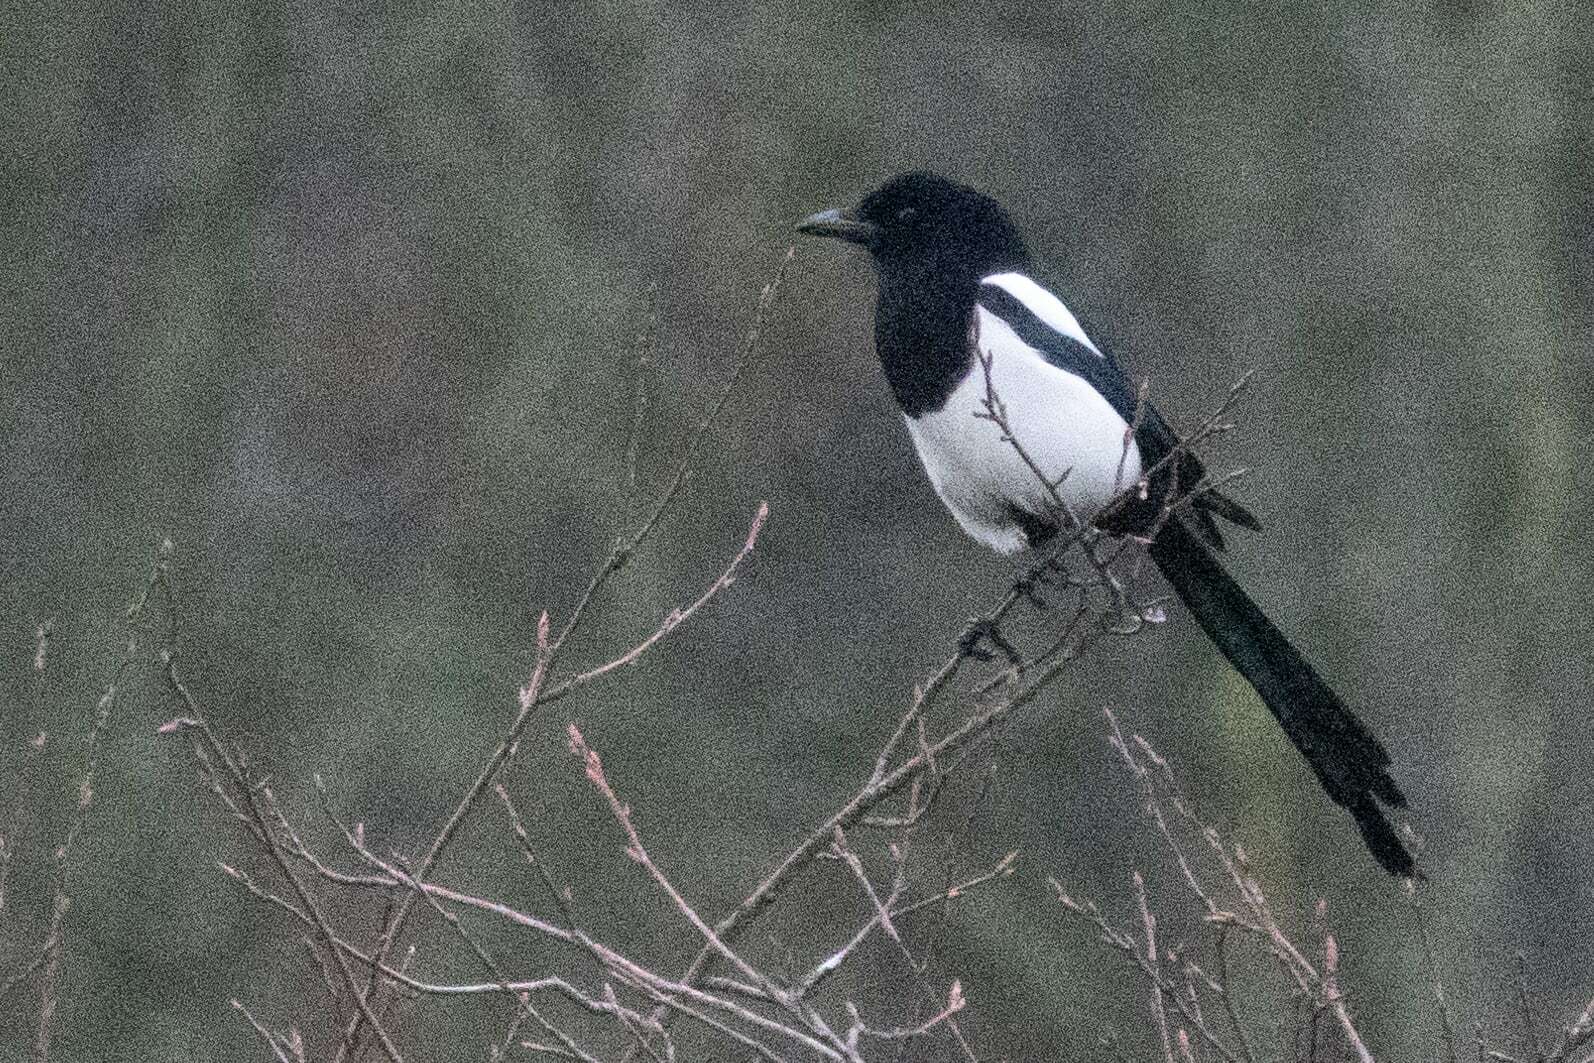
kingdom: Animalia
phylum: Chordata
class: Aves
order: Passeriformes
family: Corvidae
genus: Pica
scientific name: Pica pica
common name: Eurasian magpie
